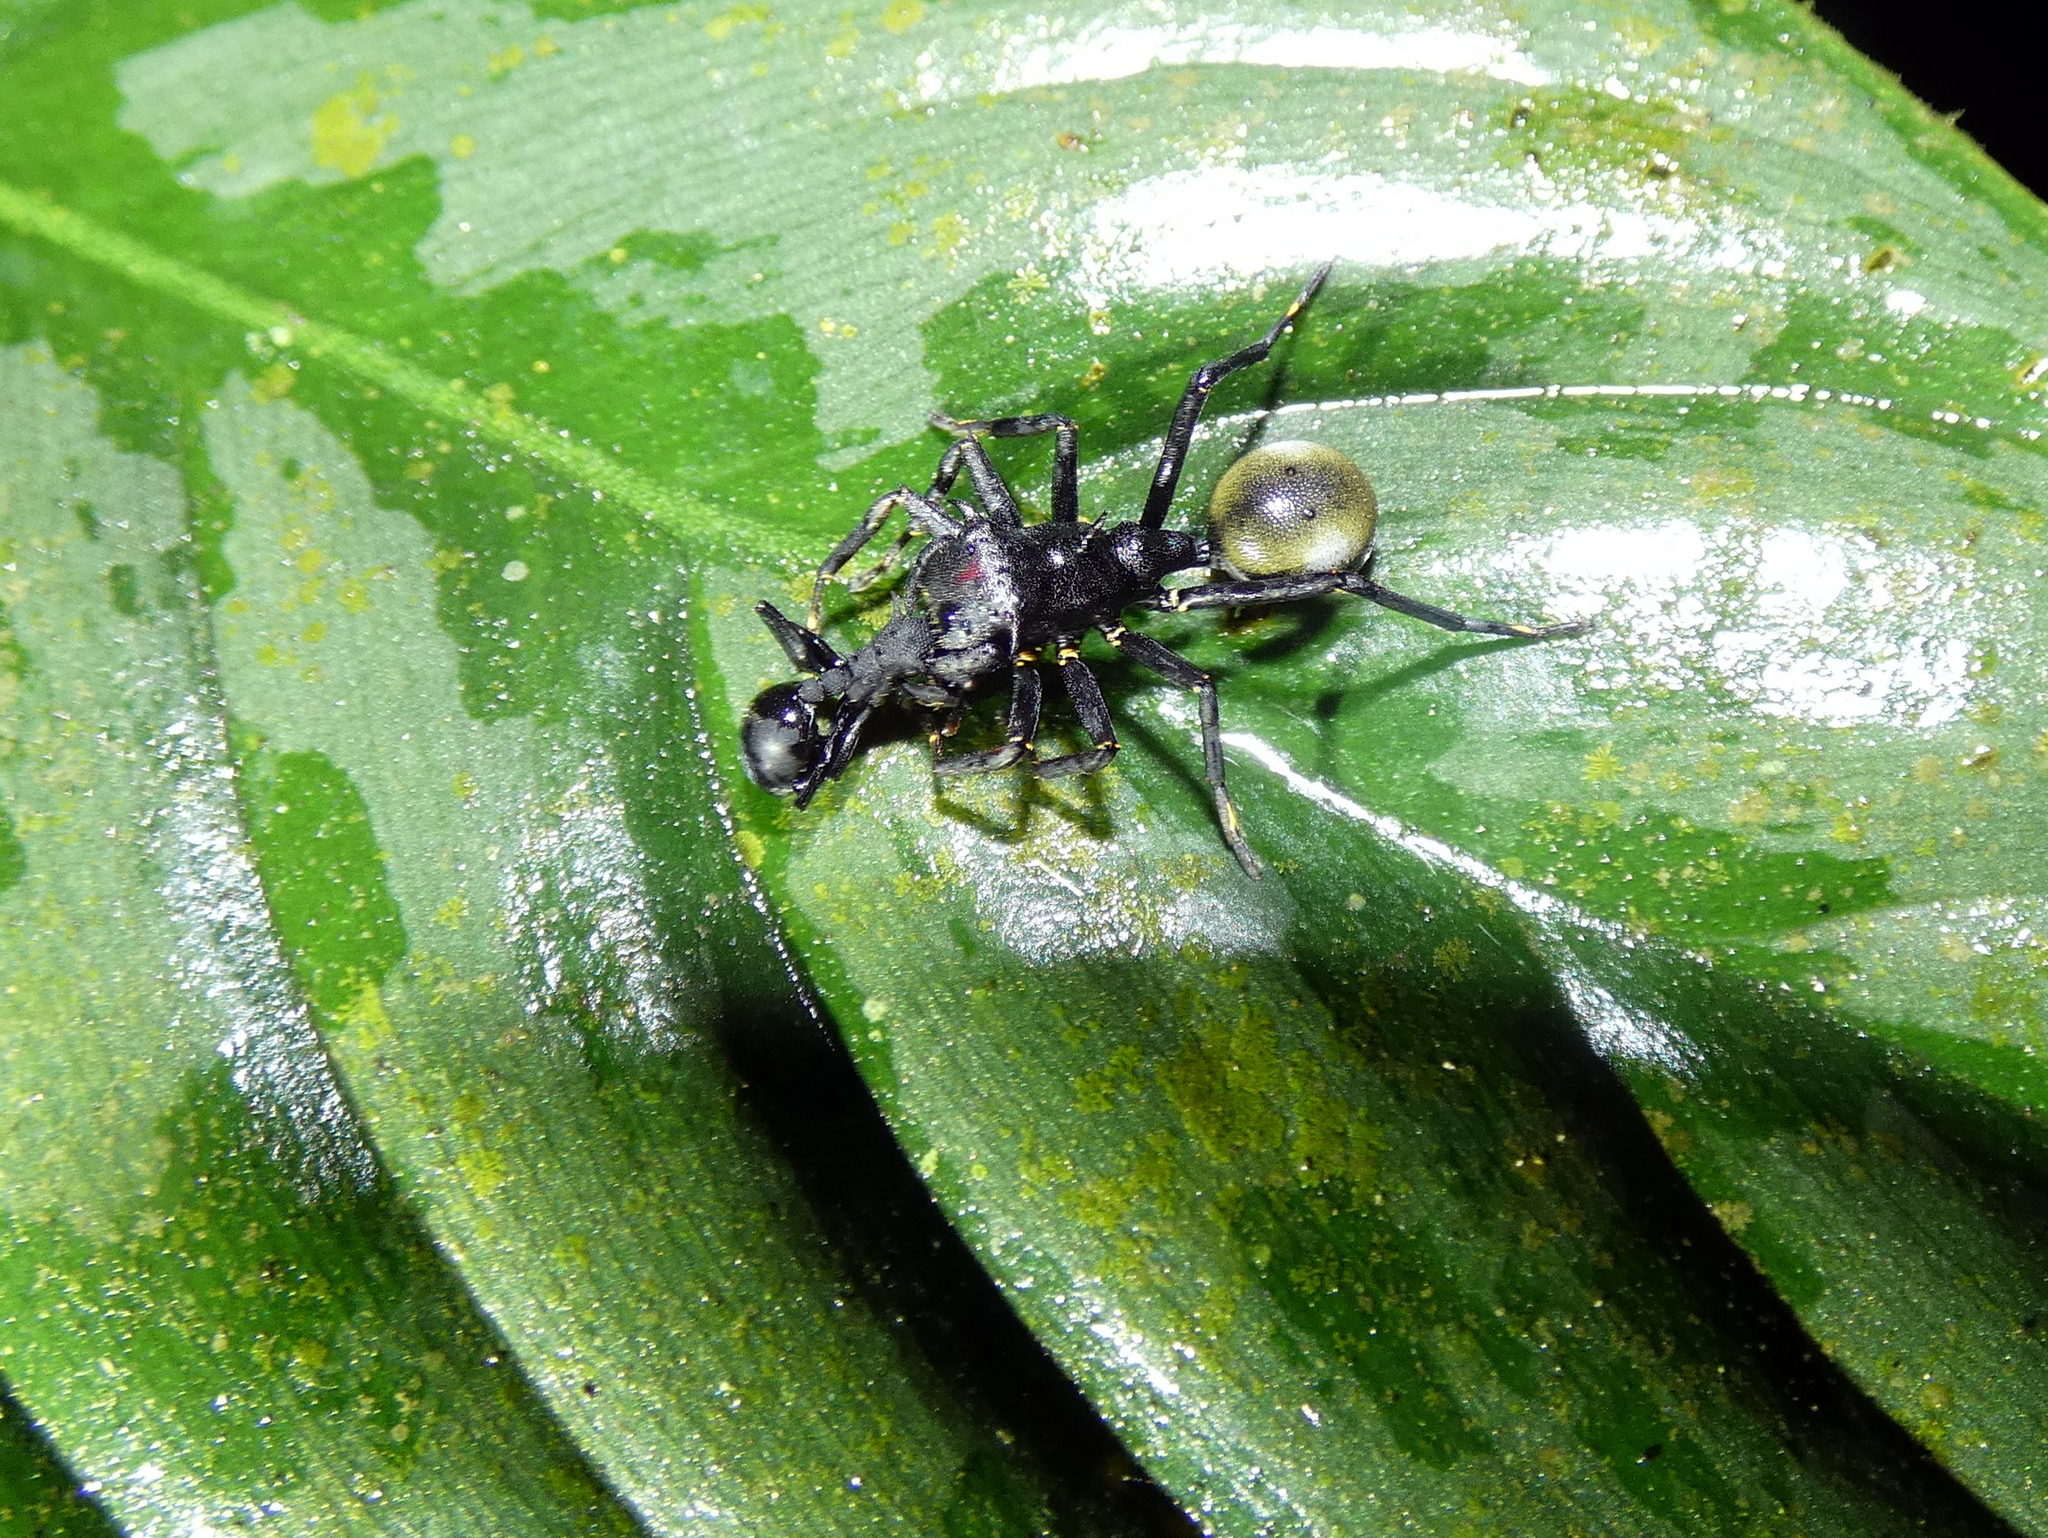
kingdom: Animalia
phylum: Arthropoda
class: Arachnida
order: Araneae
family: Thomisidae
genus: Aphantochilus
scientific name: Aphantochilus rogersi
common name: Crab spiders
